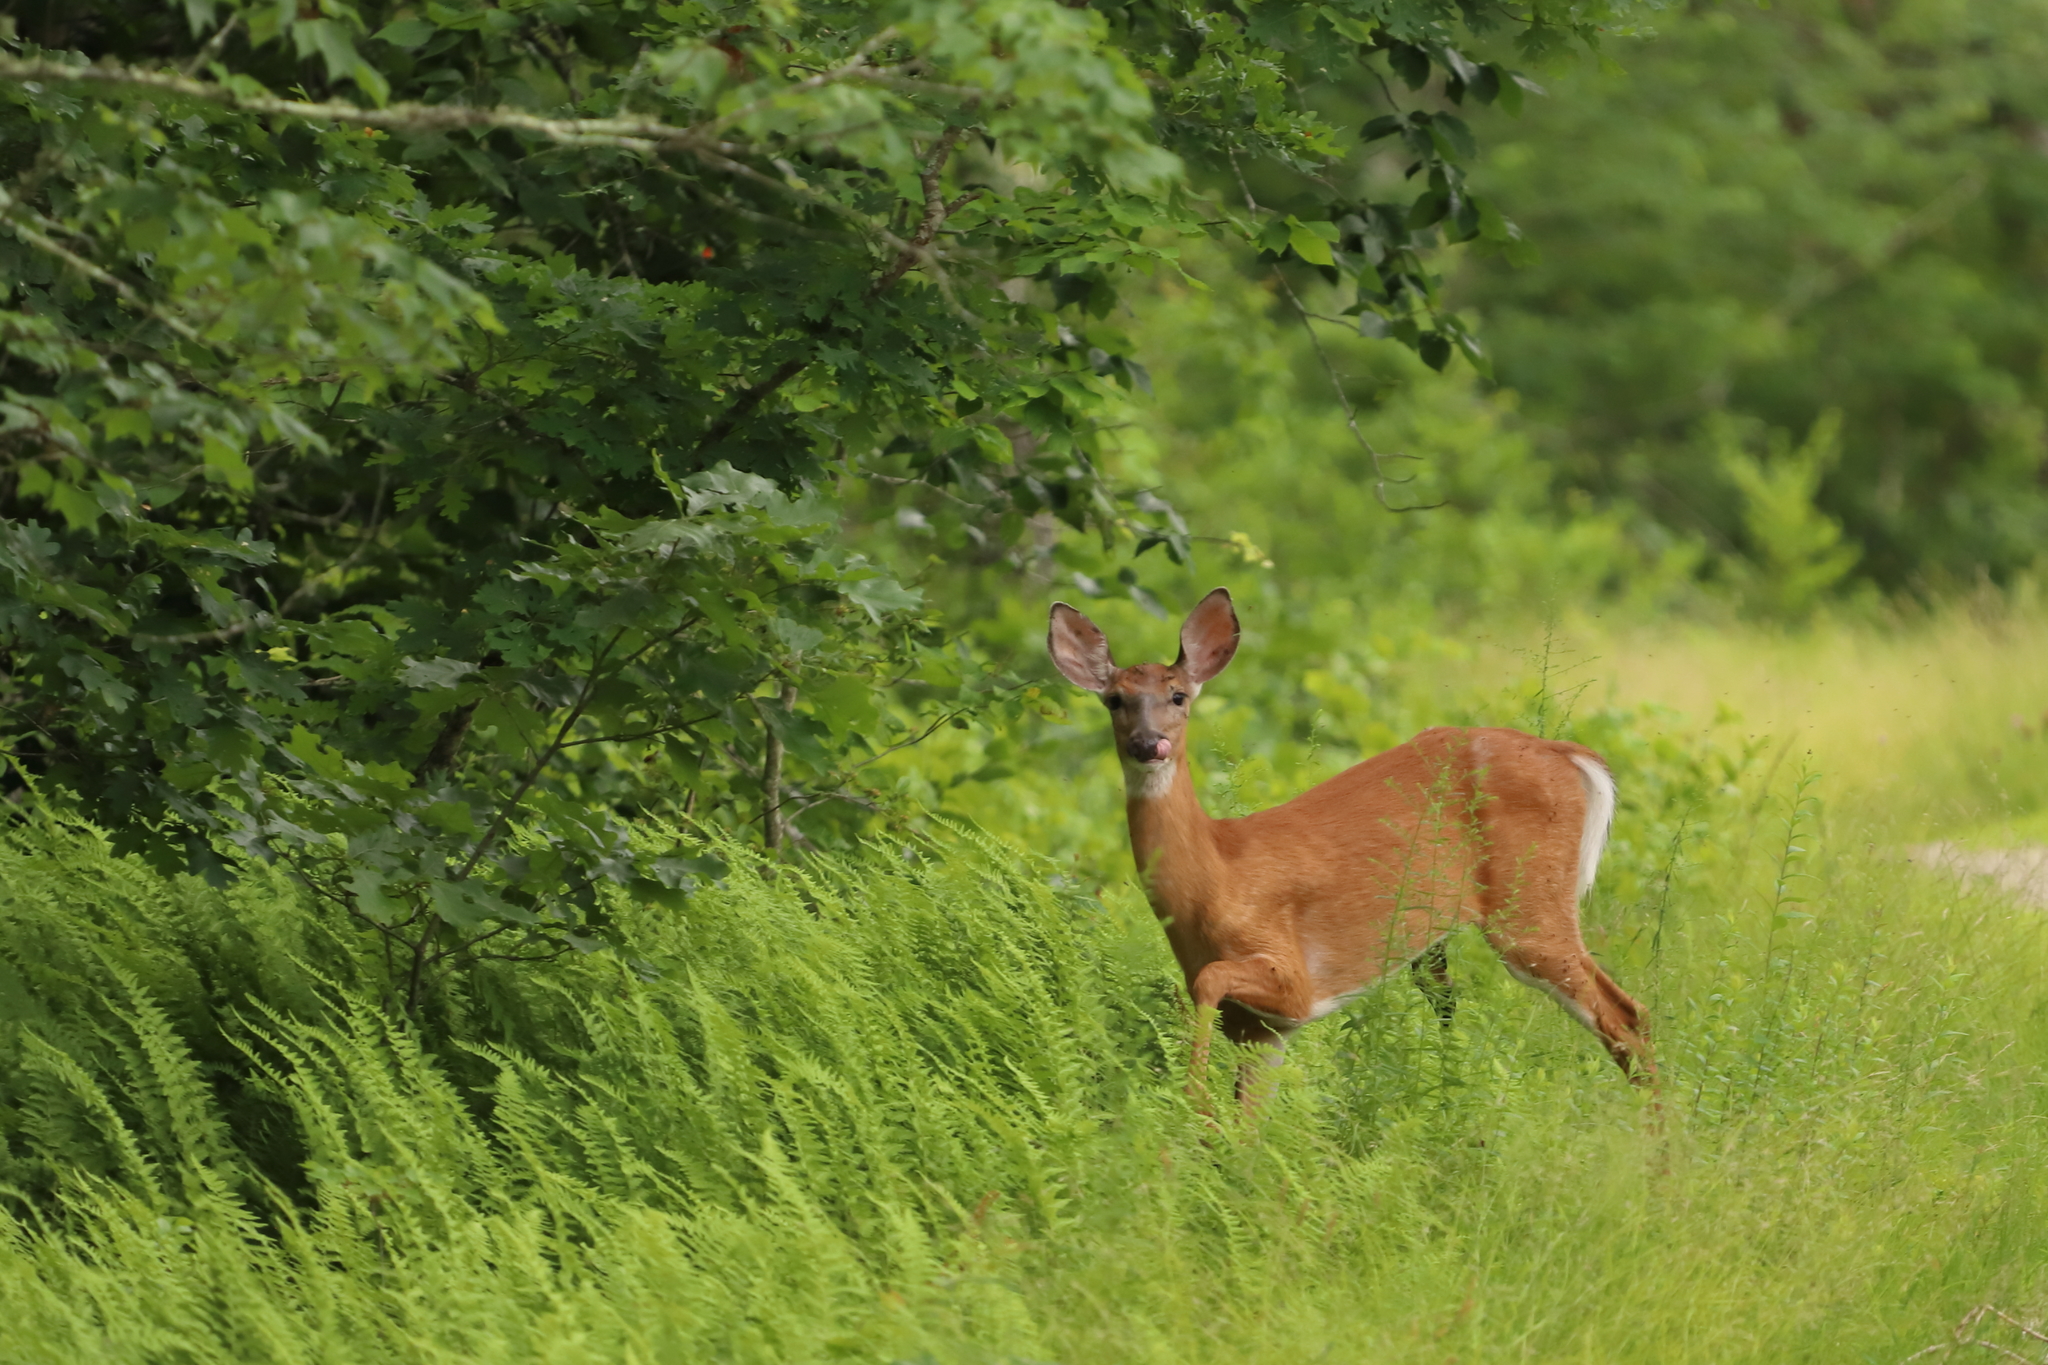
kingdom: Animalia
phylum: Chordata
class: Mammalia
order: Artiodactyla
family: Cervidae
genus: Odocoileus
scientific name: Odocoileus virginianus
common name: White-tailed deer
